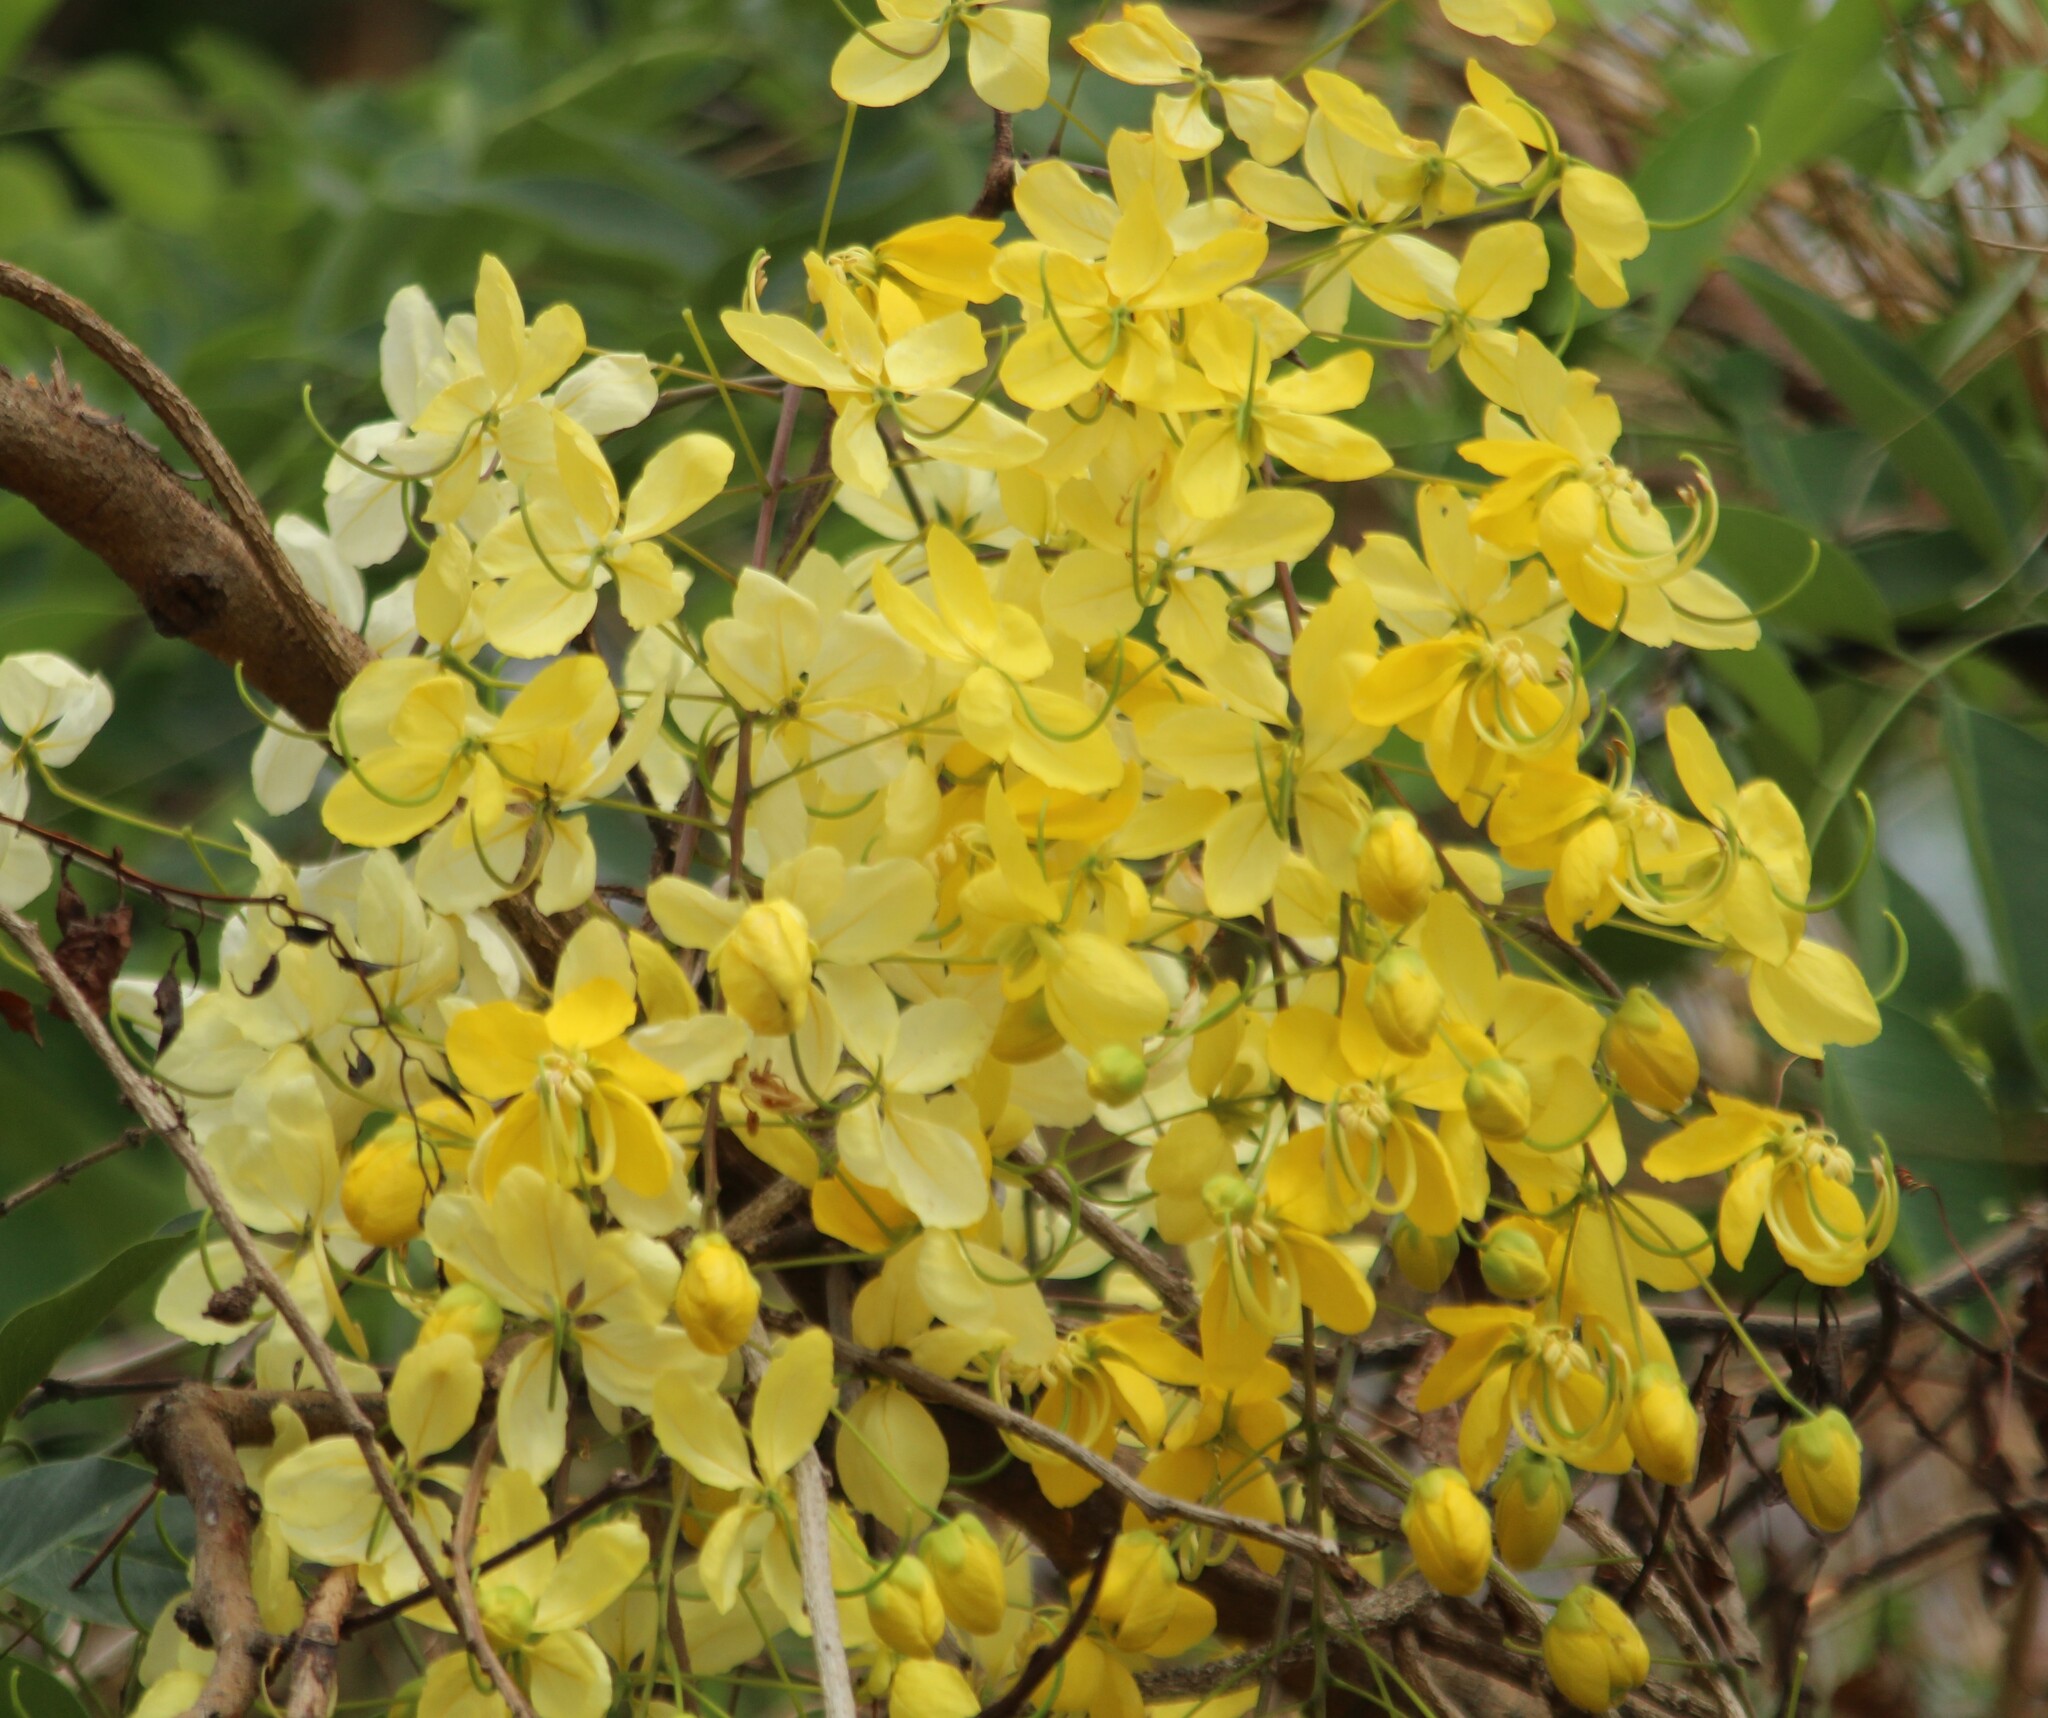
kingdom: Plantae
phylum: Tracheophyta
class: Magnoliopsida
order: Fabales
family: Fabaceae
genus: Cassia
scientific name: Cassia fistula
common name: Golden shower
